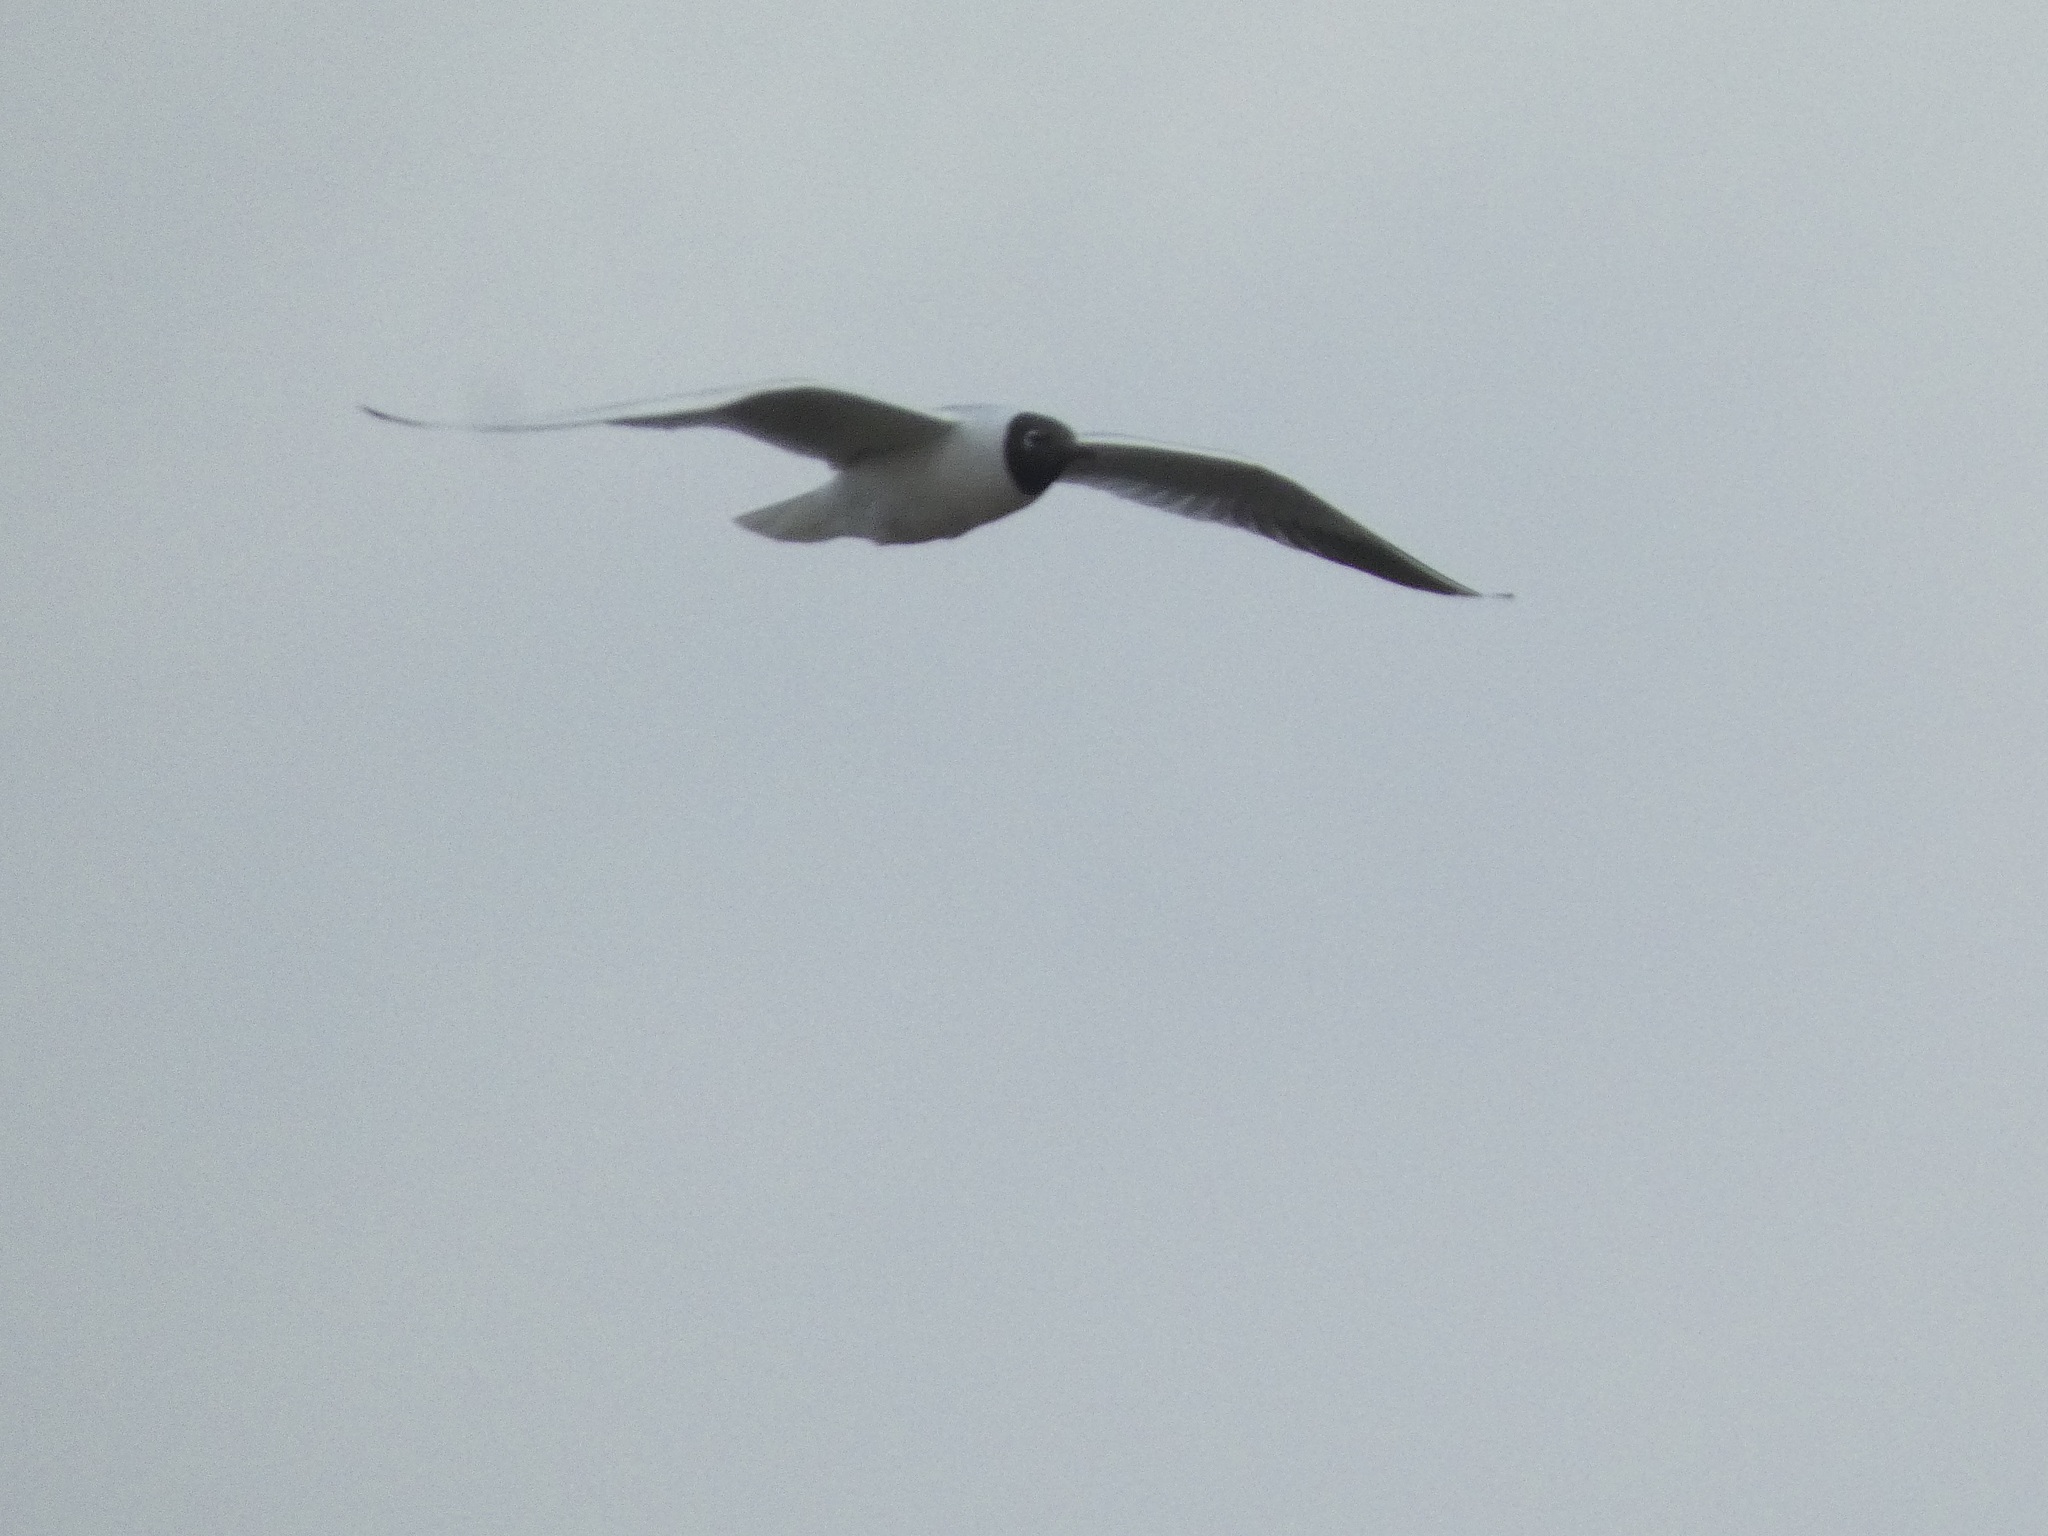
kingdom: Animalia
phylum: Chordata
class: Aves
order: Charadriiformes
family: Laridae
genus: Chroicocephalus
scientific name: Chroicocephalus ridibundus
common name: Black-headed gull
